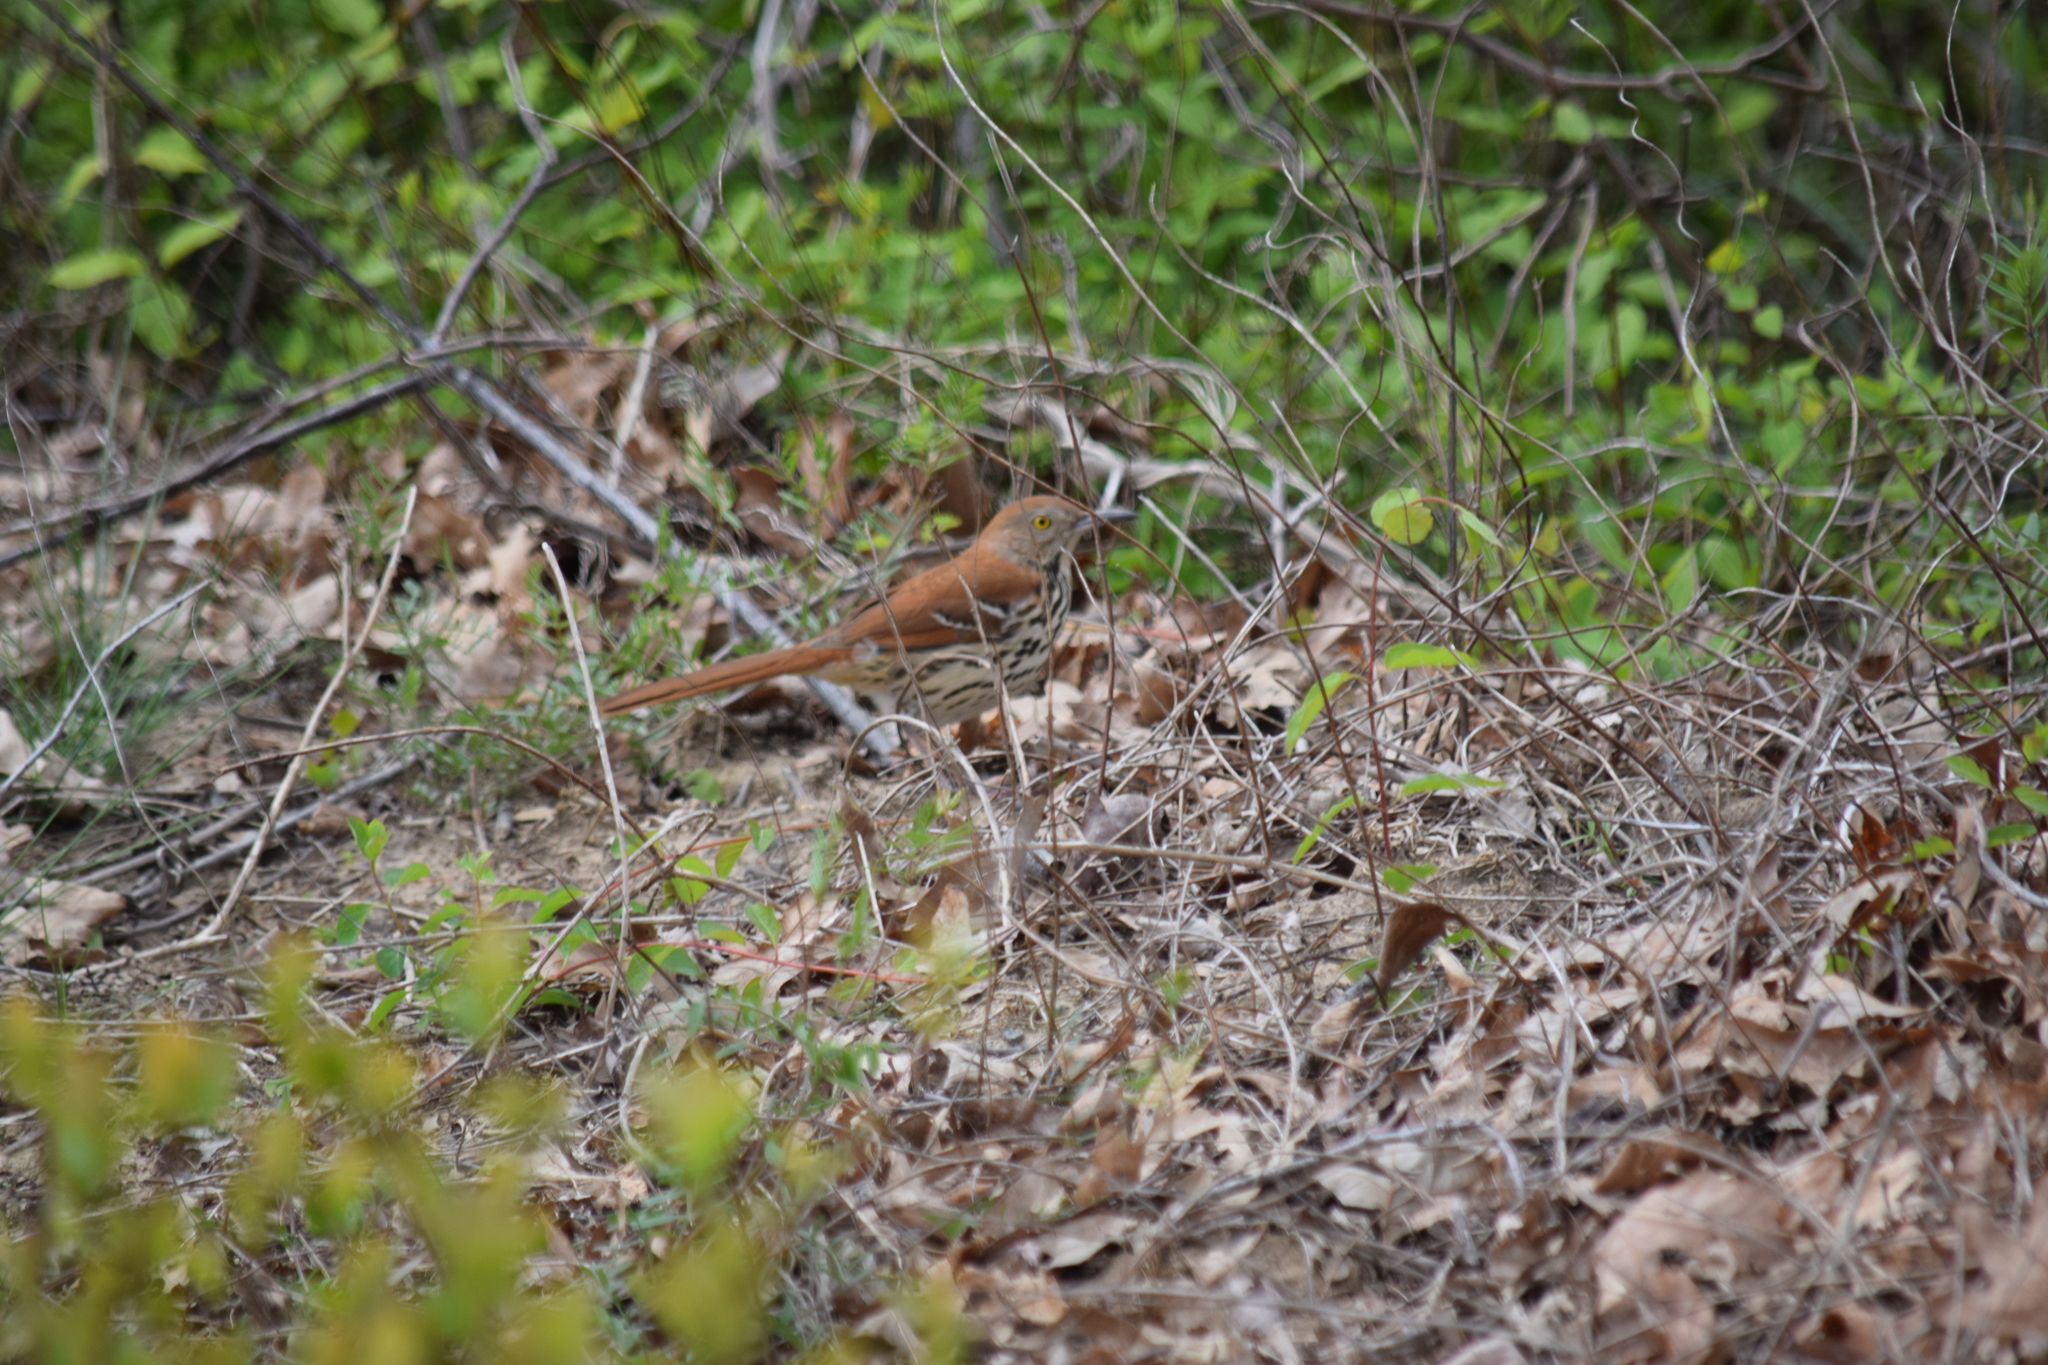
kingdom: Animalia
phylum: Chordata
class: Aves
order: Passeriformes
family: Mimidae
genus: Toxostoma
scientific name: Toxostoma rufum
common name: Brown thrasher
